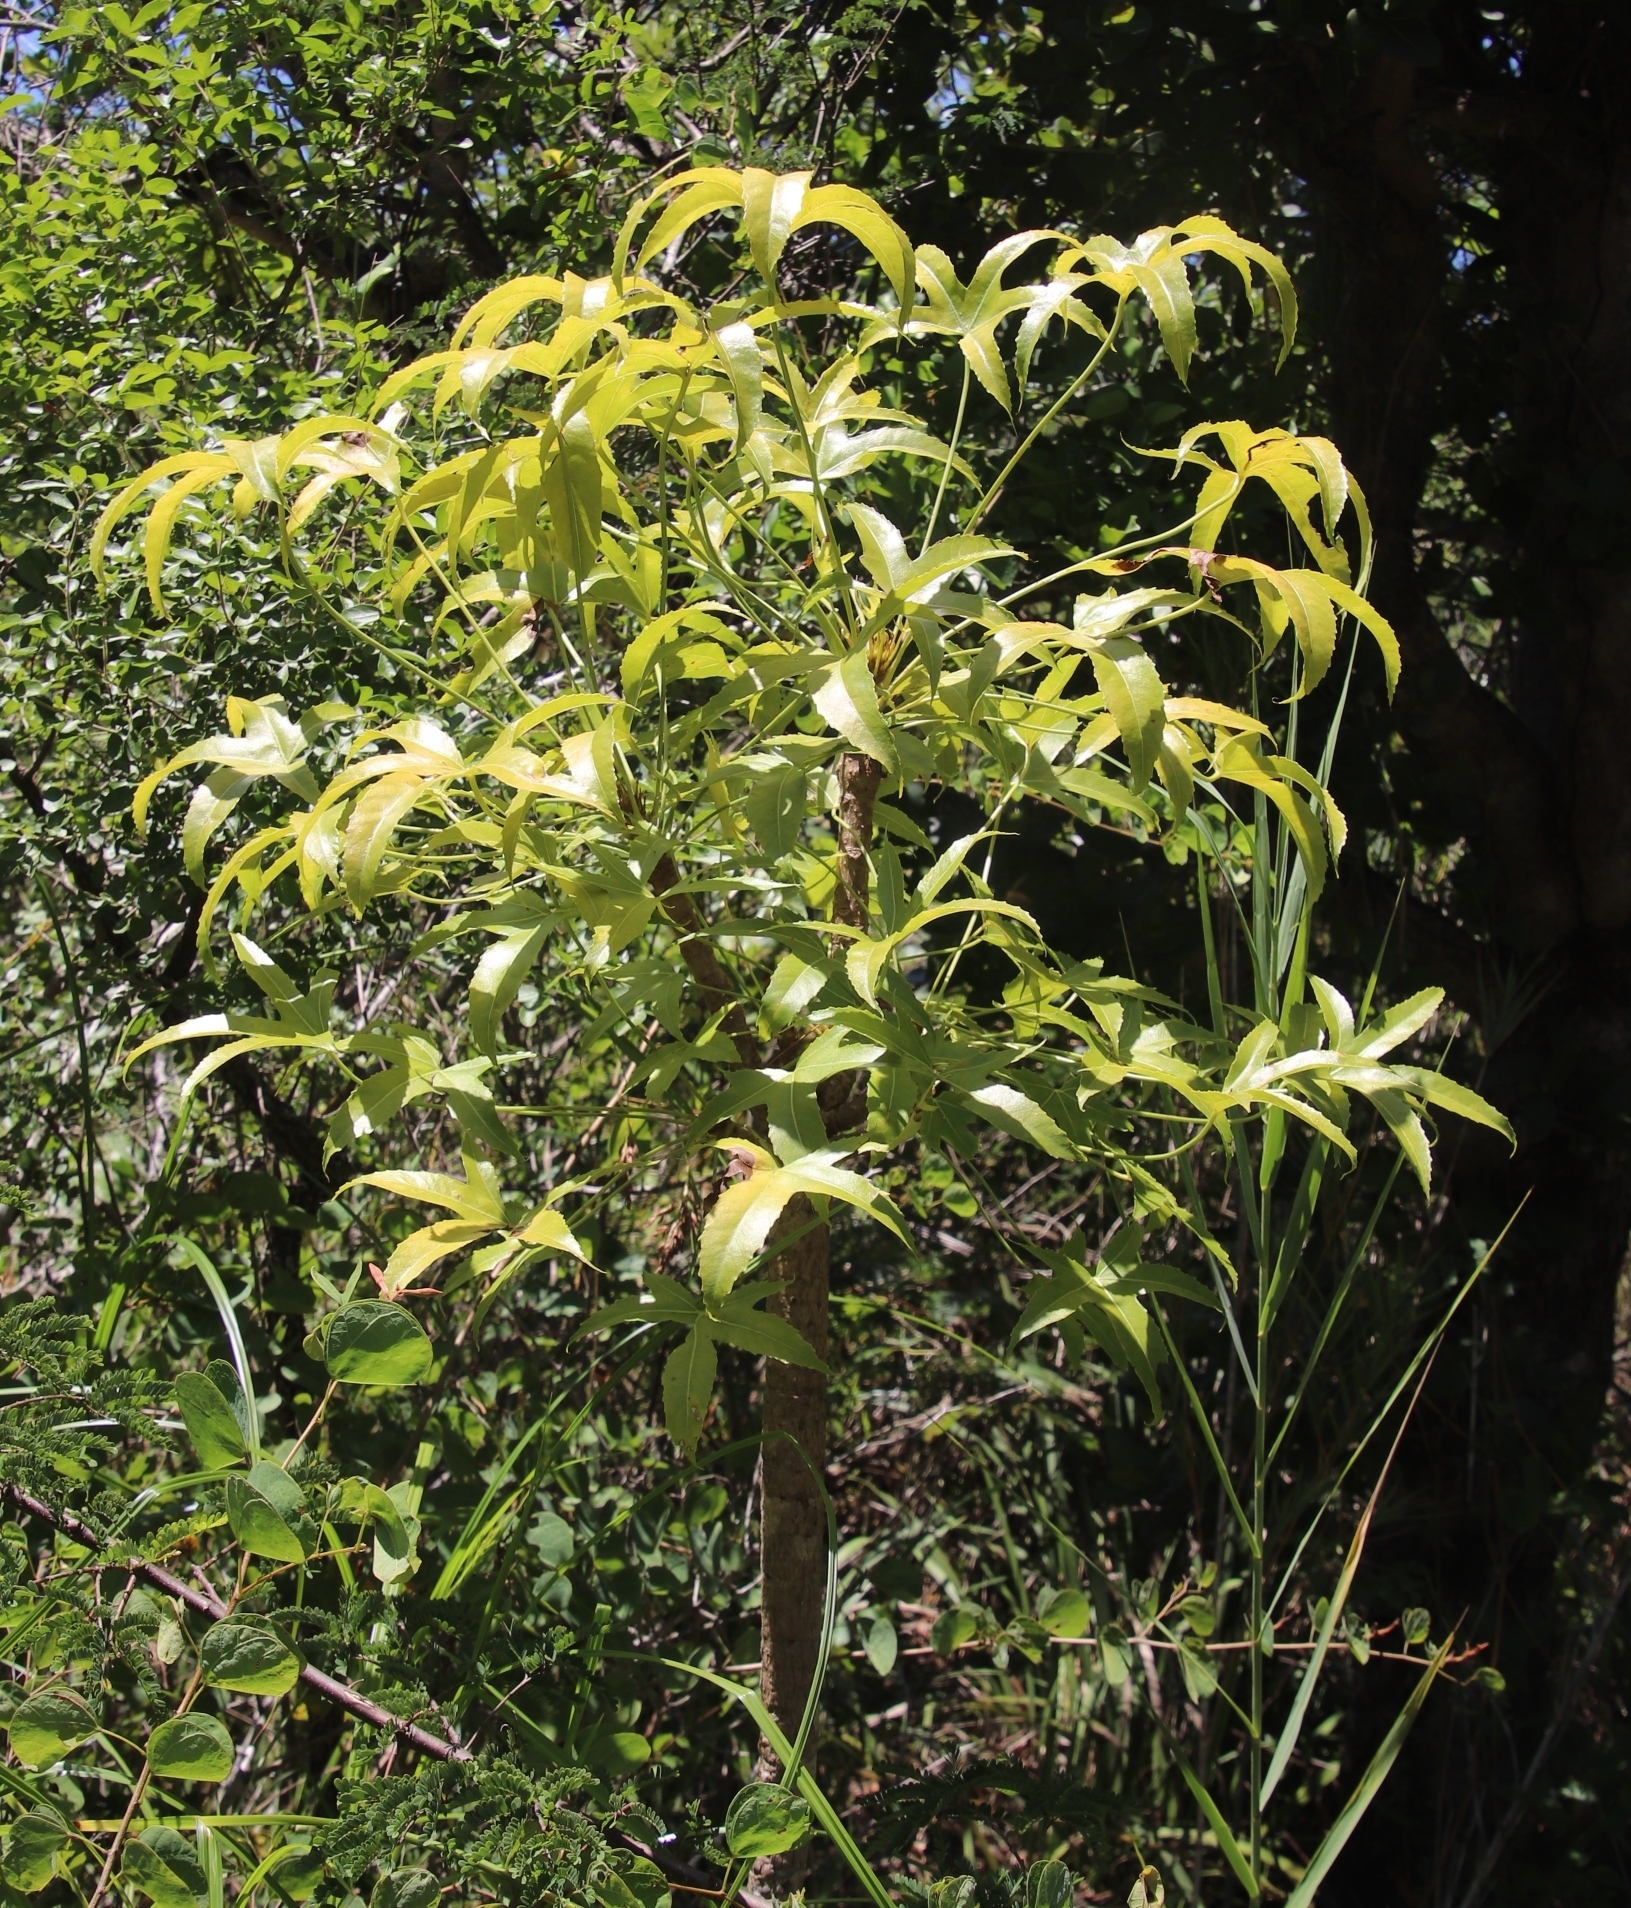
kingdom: Plantae
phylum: Tracheophyta
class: Magnoliopsida
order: Apiales
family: Araliaceae
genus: Cussonia
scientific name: Cussonia natalensis
